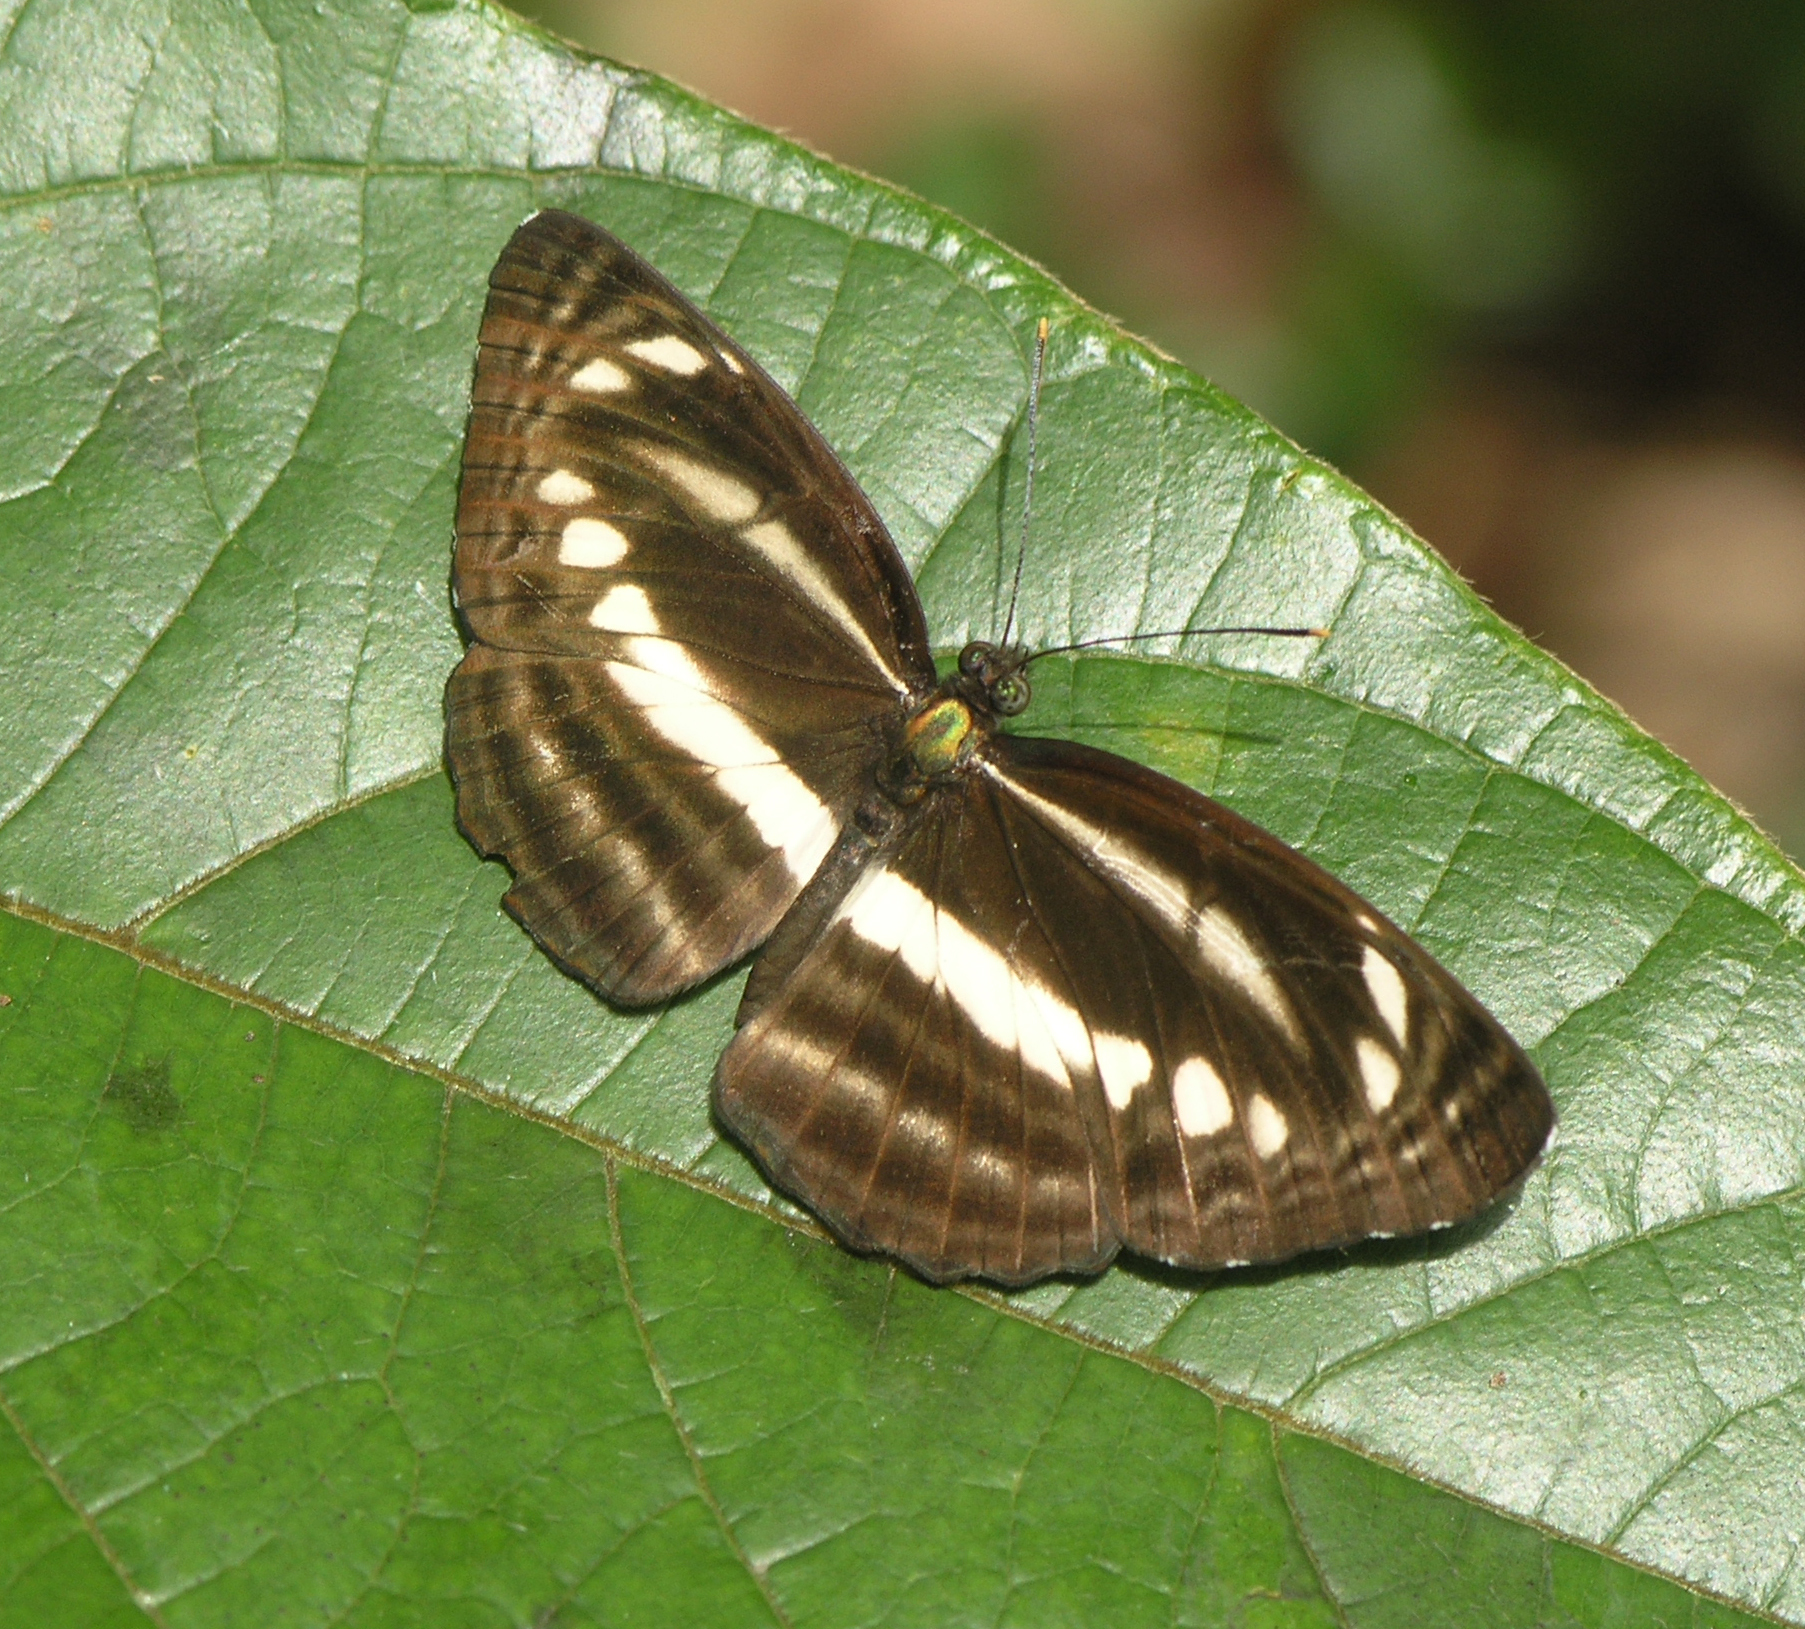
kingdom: Animalia
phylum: Arthropoda
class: Insecta
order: Lepidoptera
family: Nymphalidae
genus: Neptis
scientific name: Neptis clinia
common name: Southern sullied sailer
